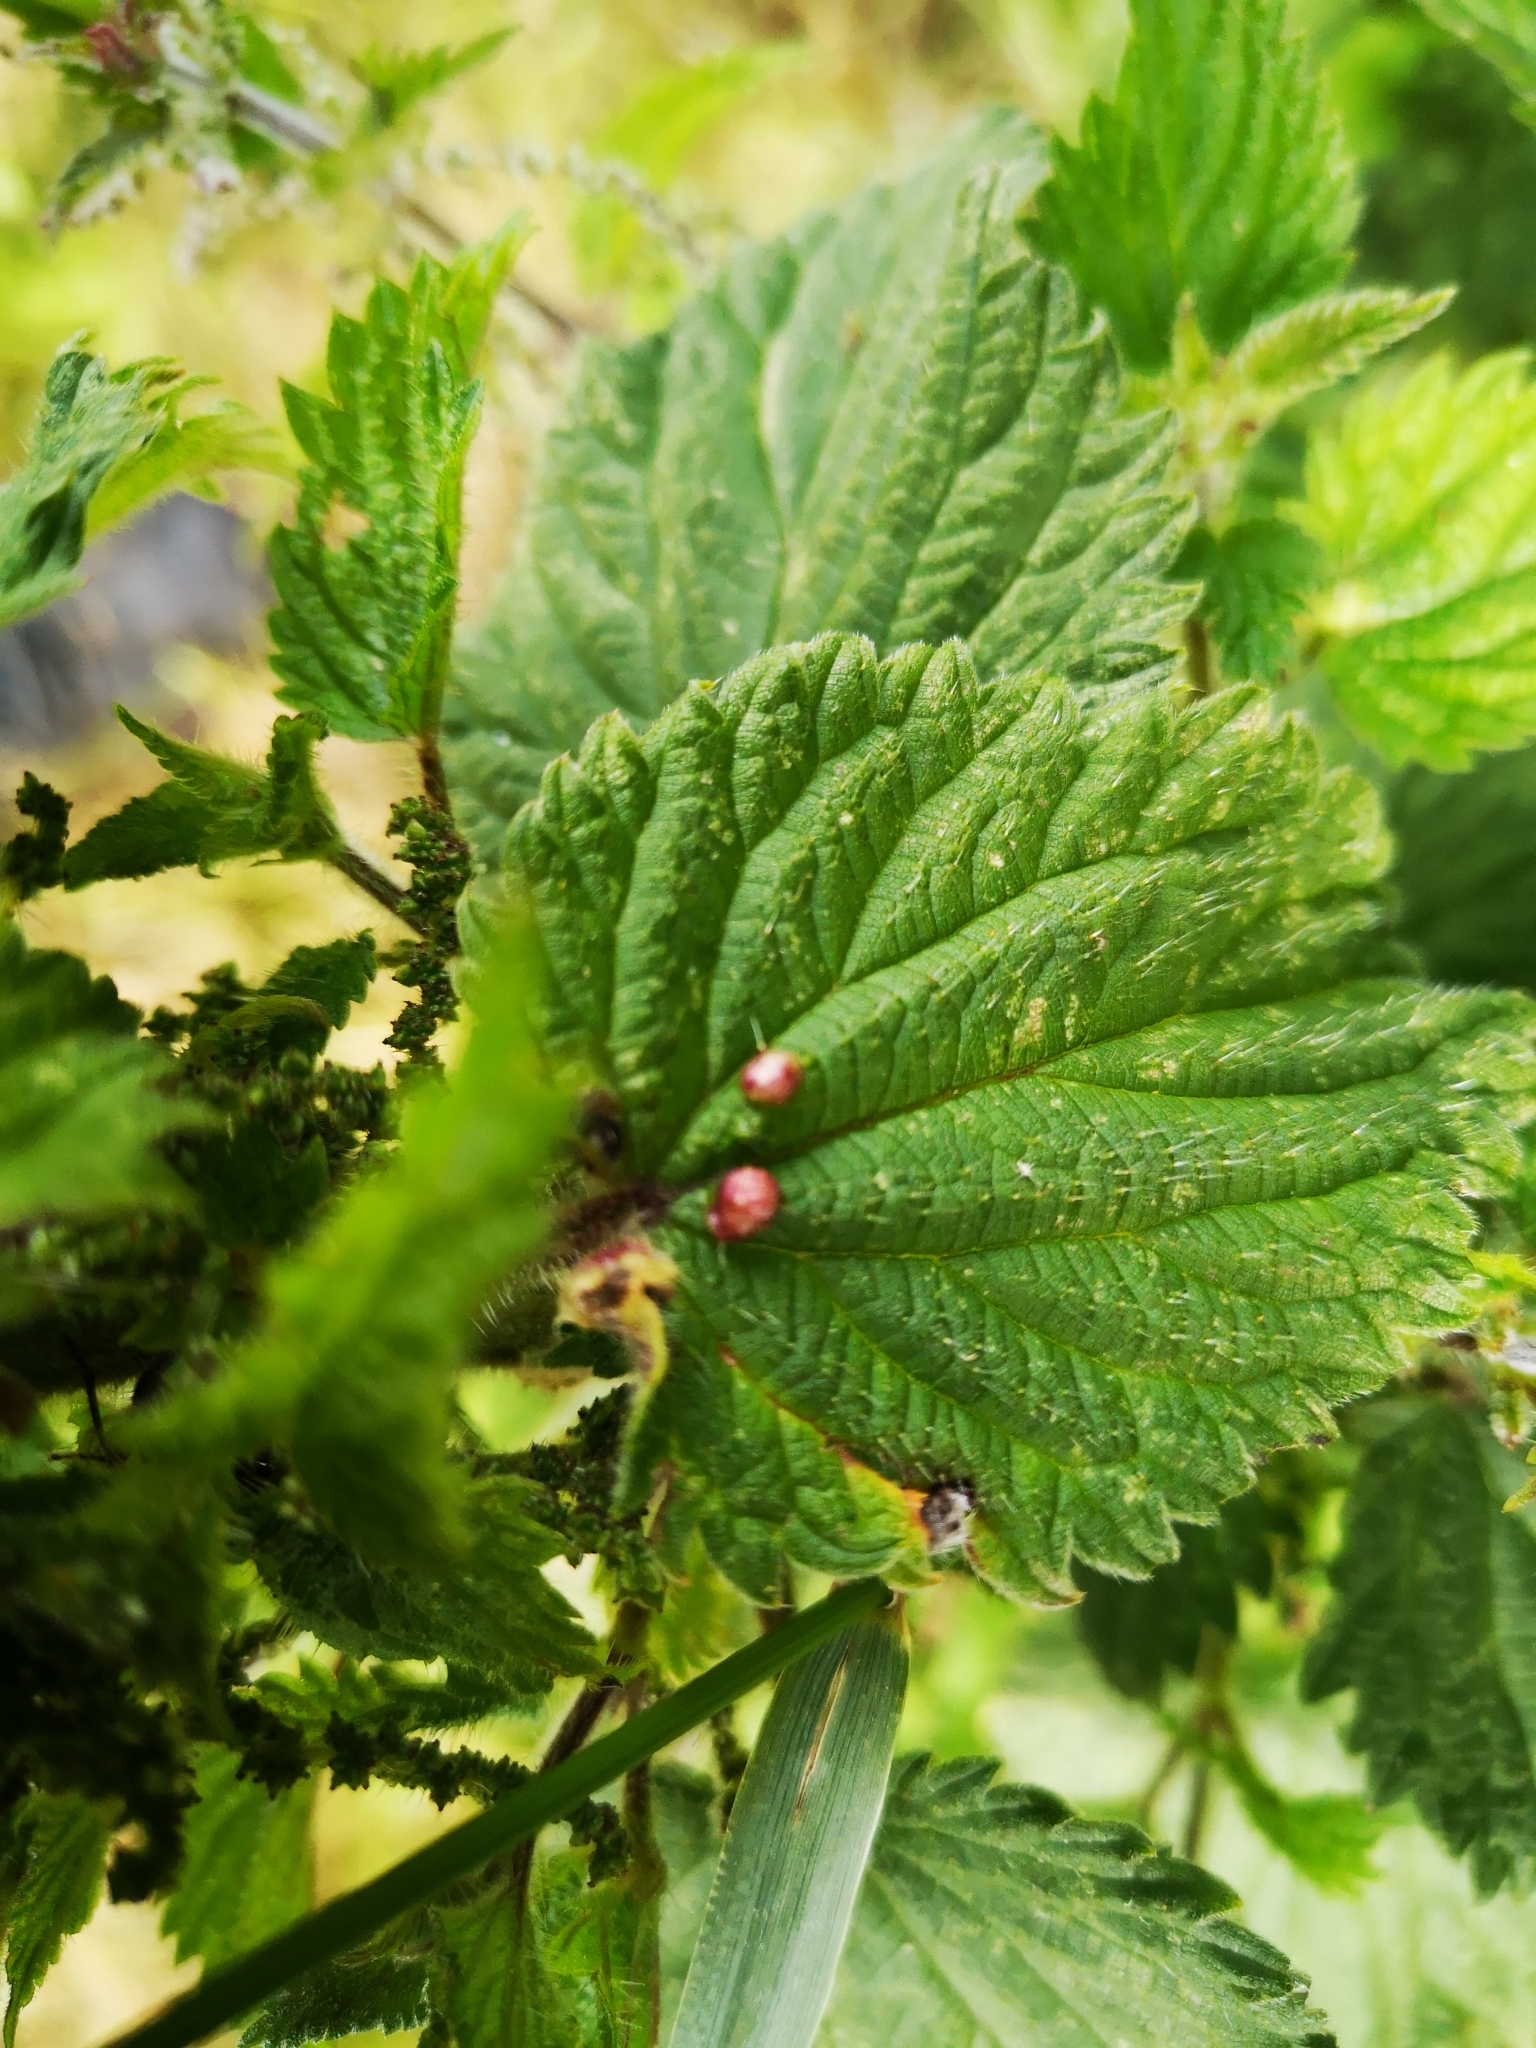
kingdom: Animalia
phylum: Arthropoda
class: Insecta
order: Diptera
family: Cecidomyiidae
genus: Dasineura
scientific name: Dasineura urticae
